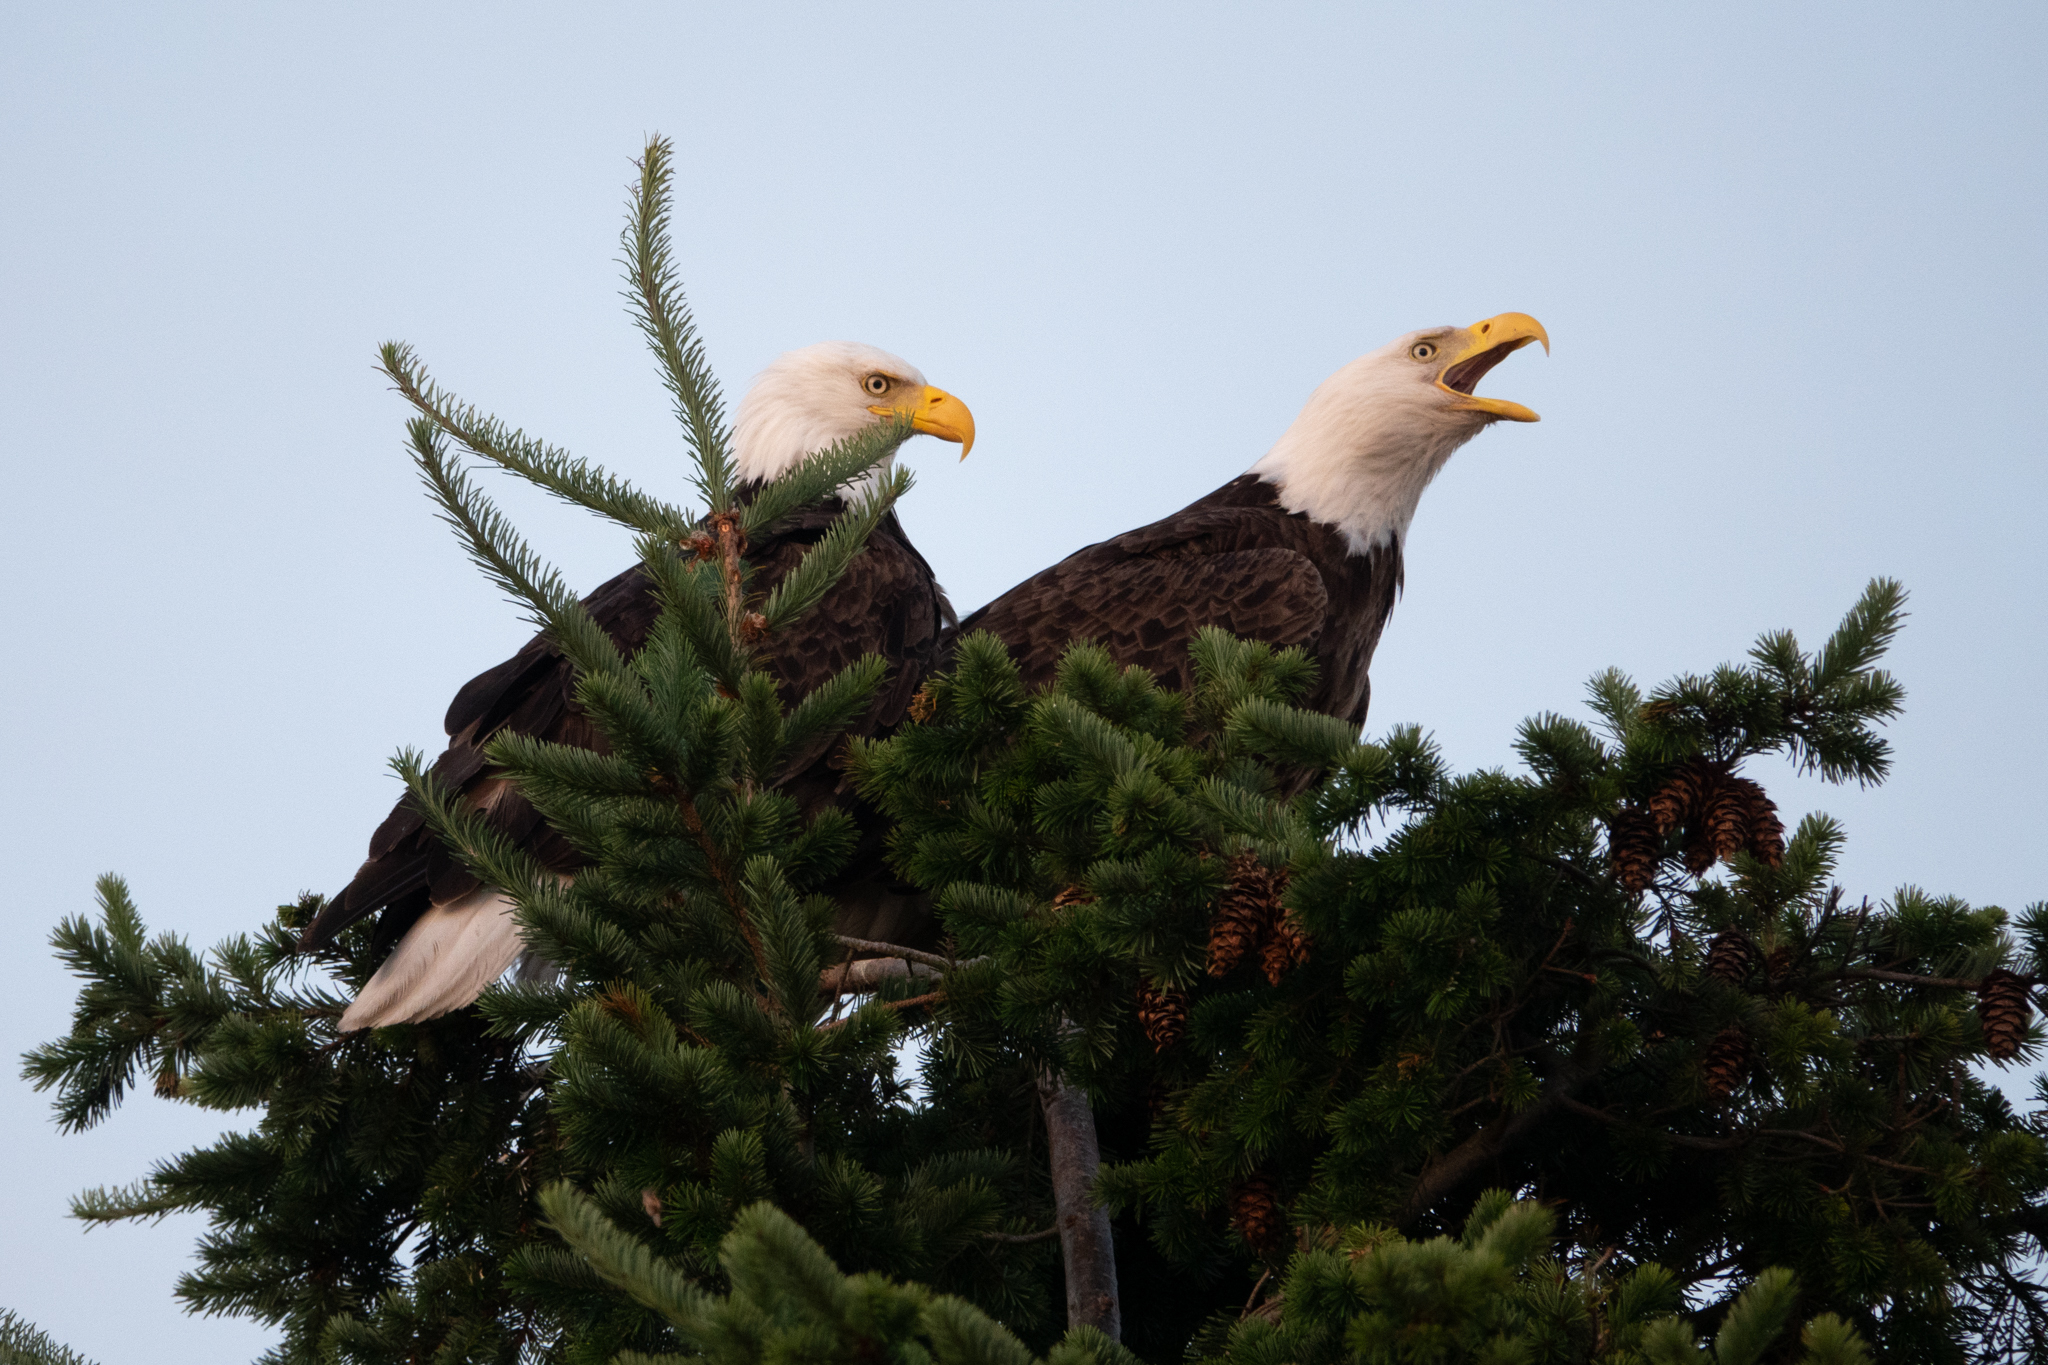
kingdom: Animalia
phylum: Chordata
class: Aves
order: Accipitriformes
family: Accipitridae
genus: Haliaeetus
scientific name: Haliaeetus leucocephalus
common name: Bald eagle
